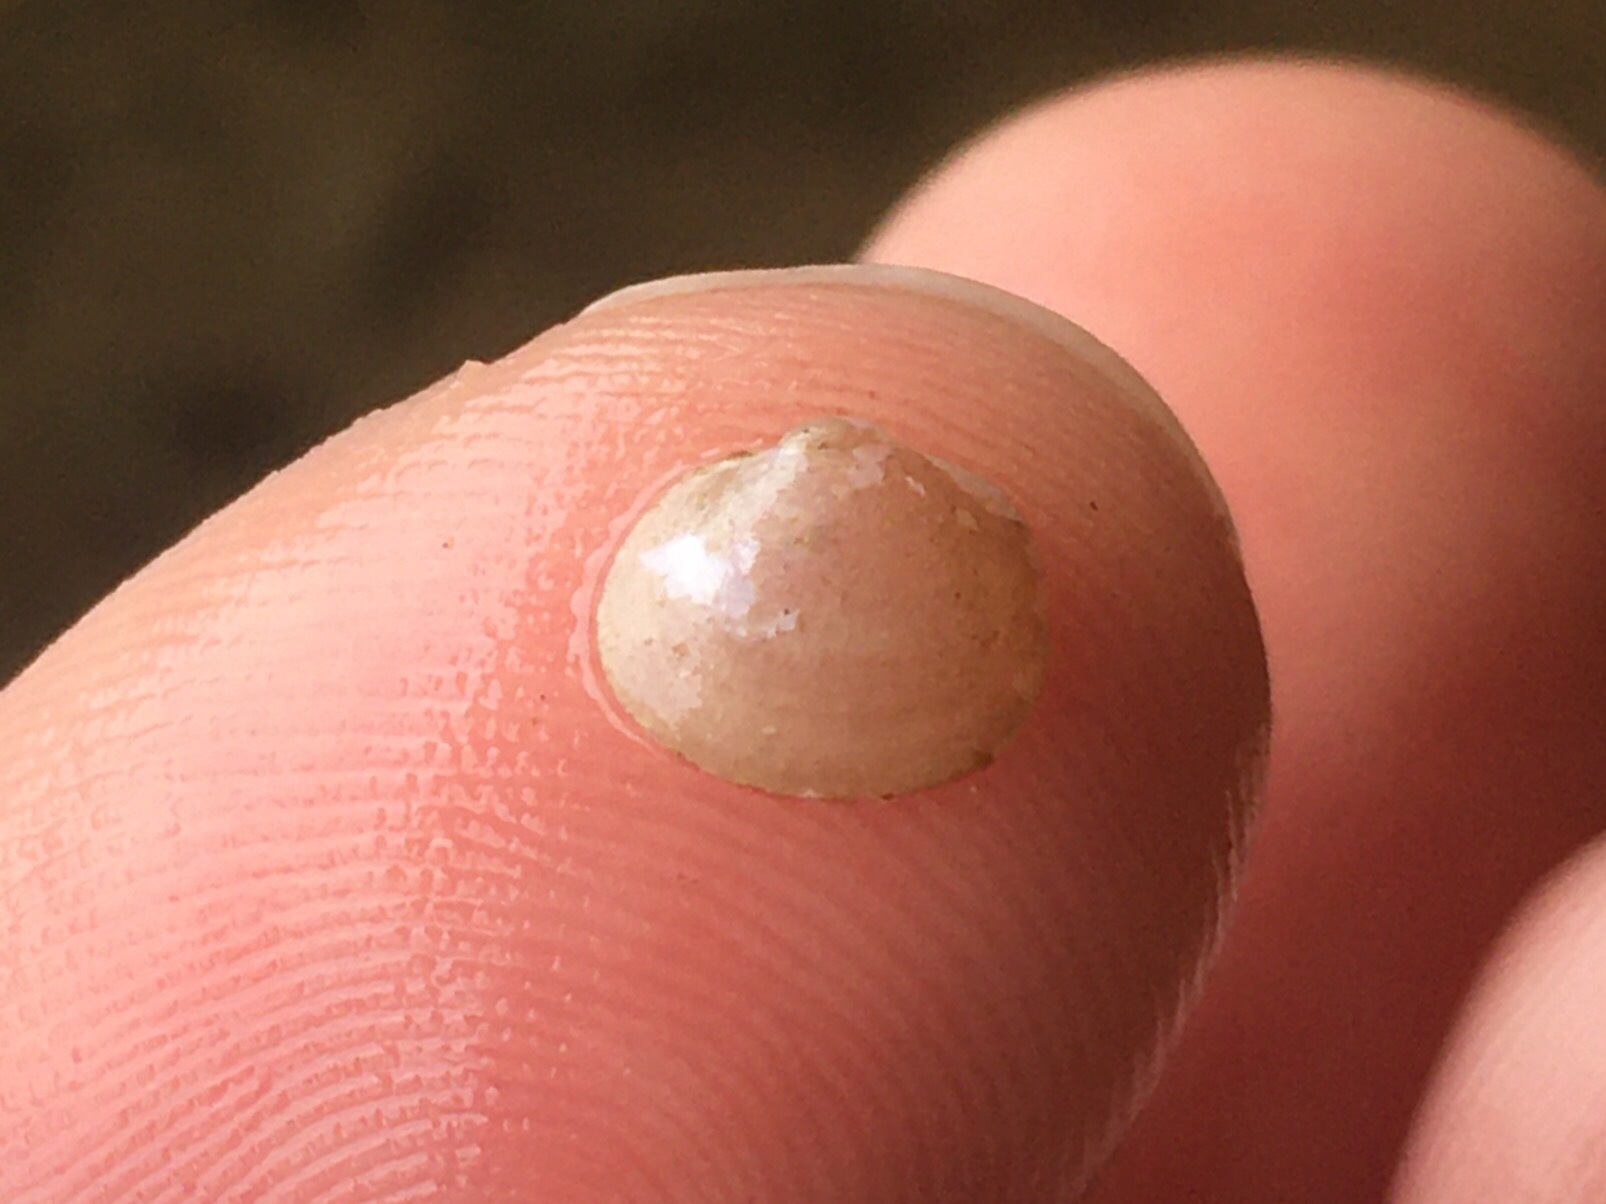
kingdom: Animalia
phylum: Mollusca
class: Bivalvia
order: Sphaeriida
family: Sphaeriidae
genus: Musculium
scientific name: Musculium argentinum
